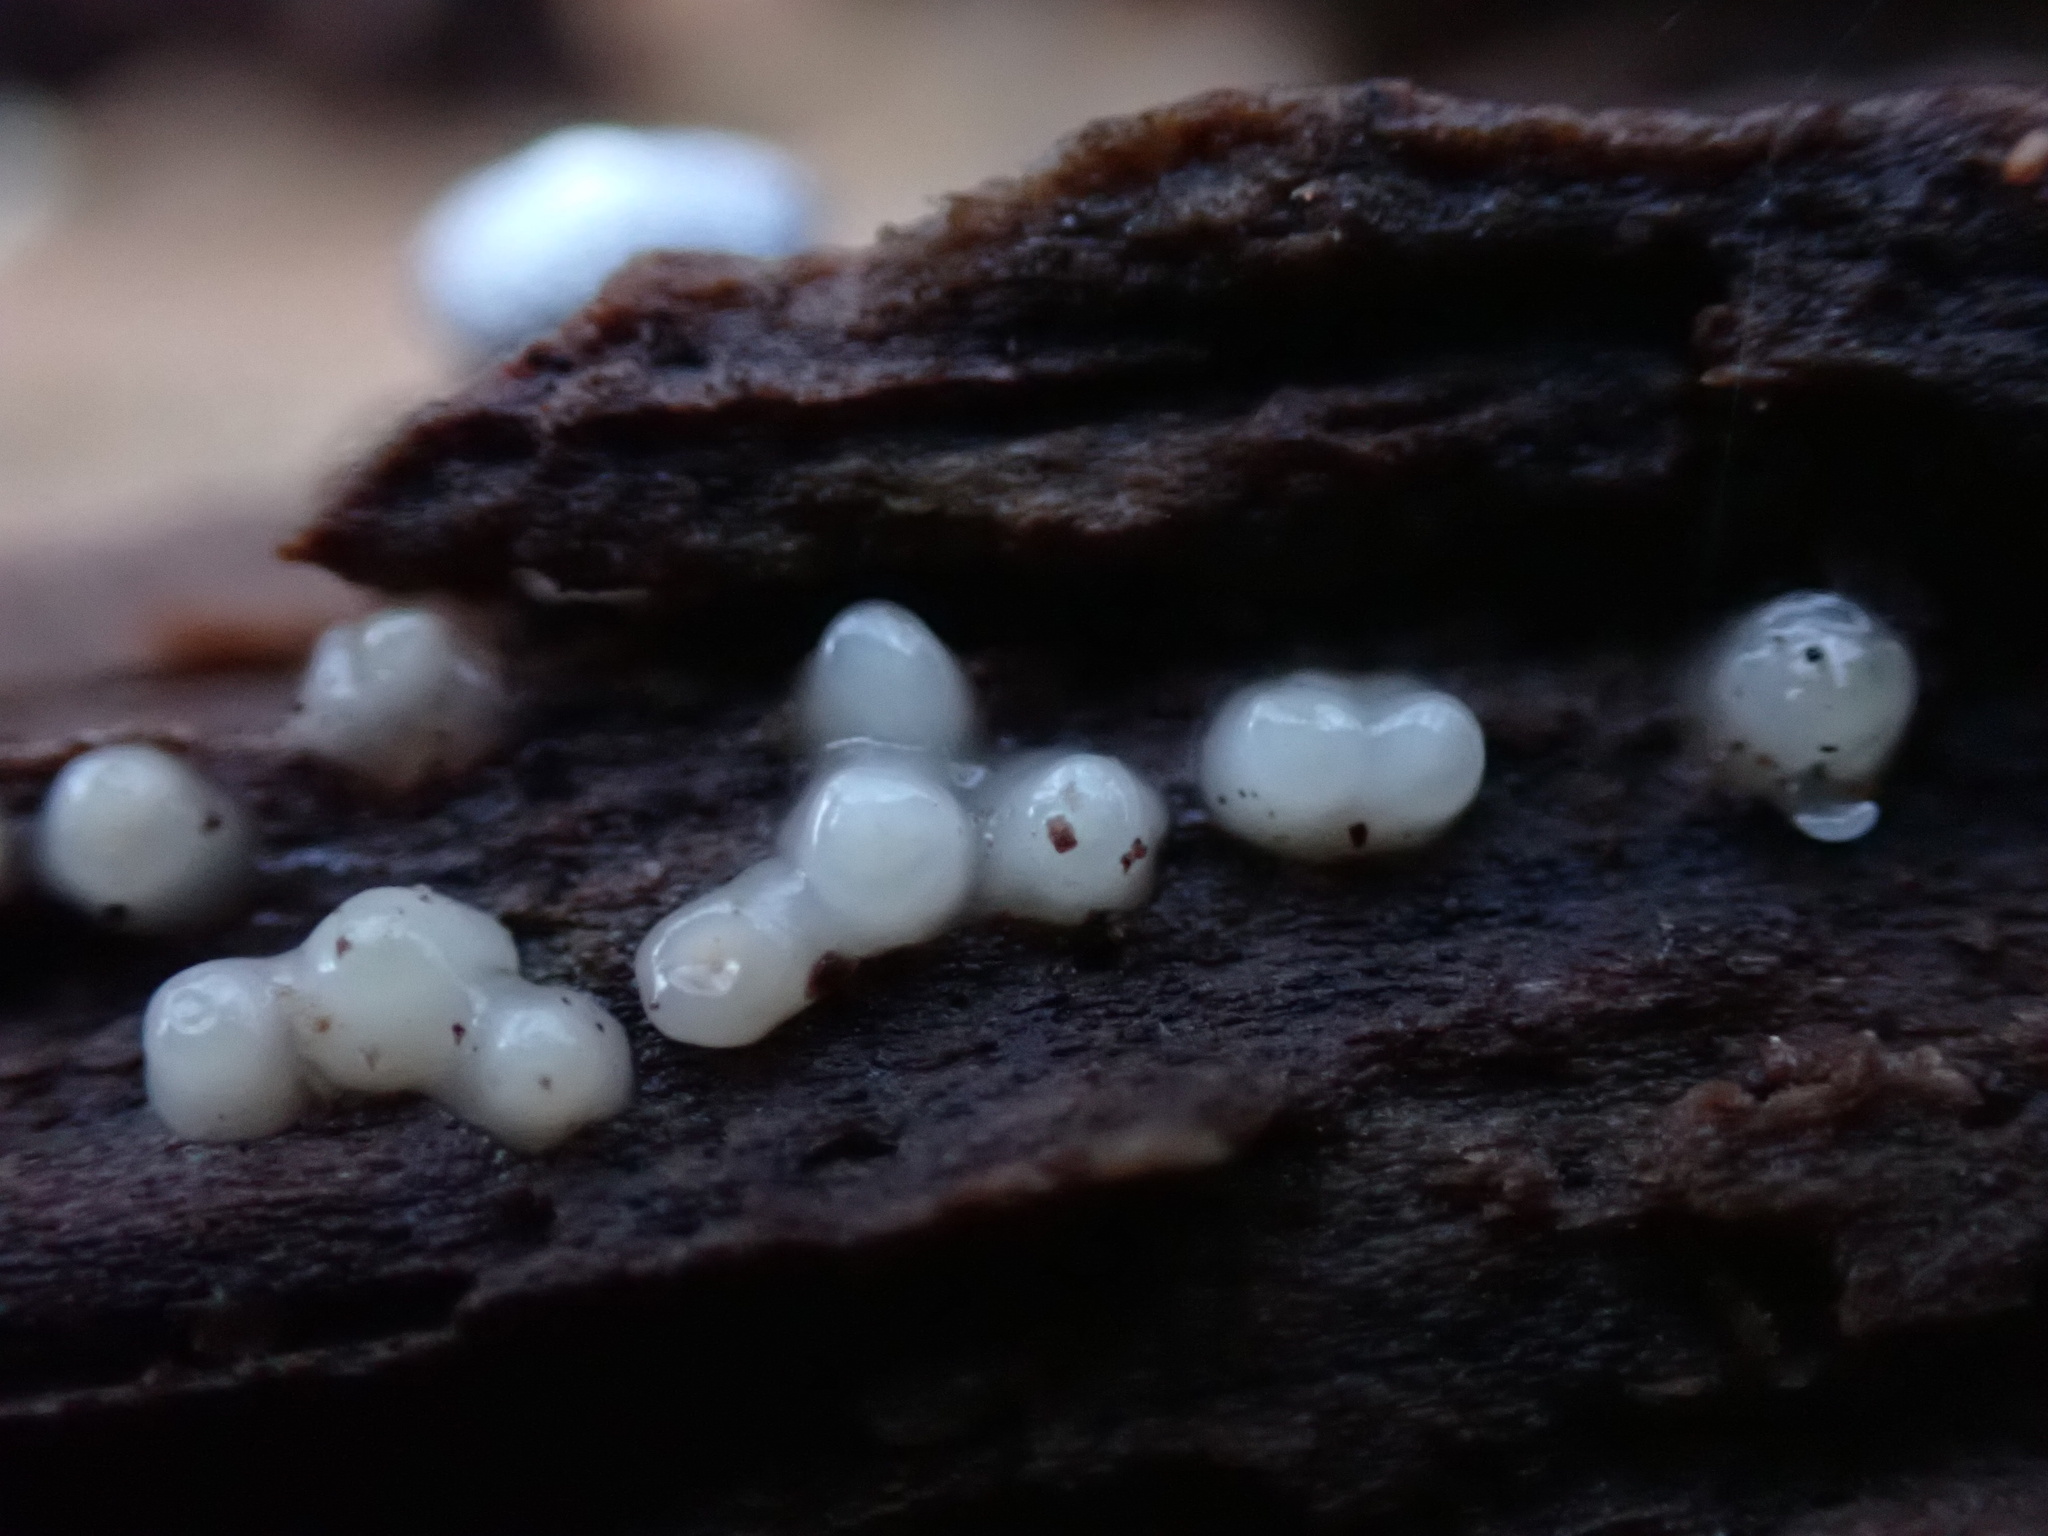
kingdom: Fungi
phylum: Basidiomycota
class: Atractiellomycetes
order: Atractiellales
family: Phleogenaceae
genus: Helicogloea
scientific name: Helicogloea compressa
